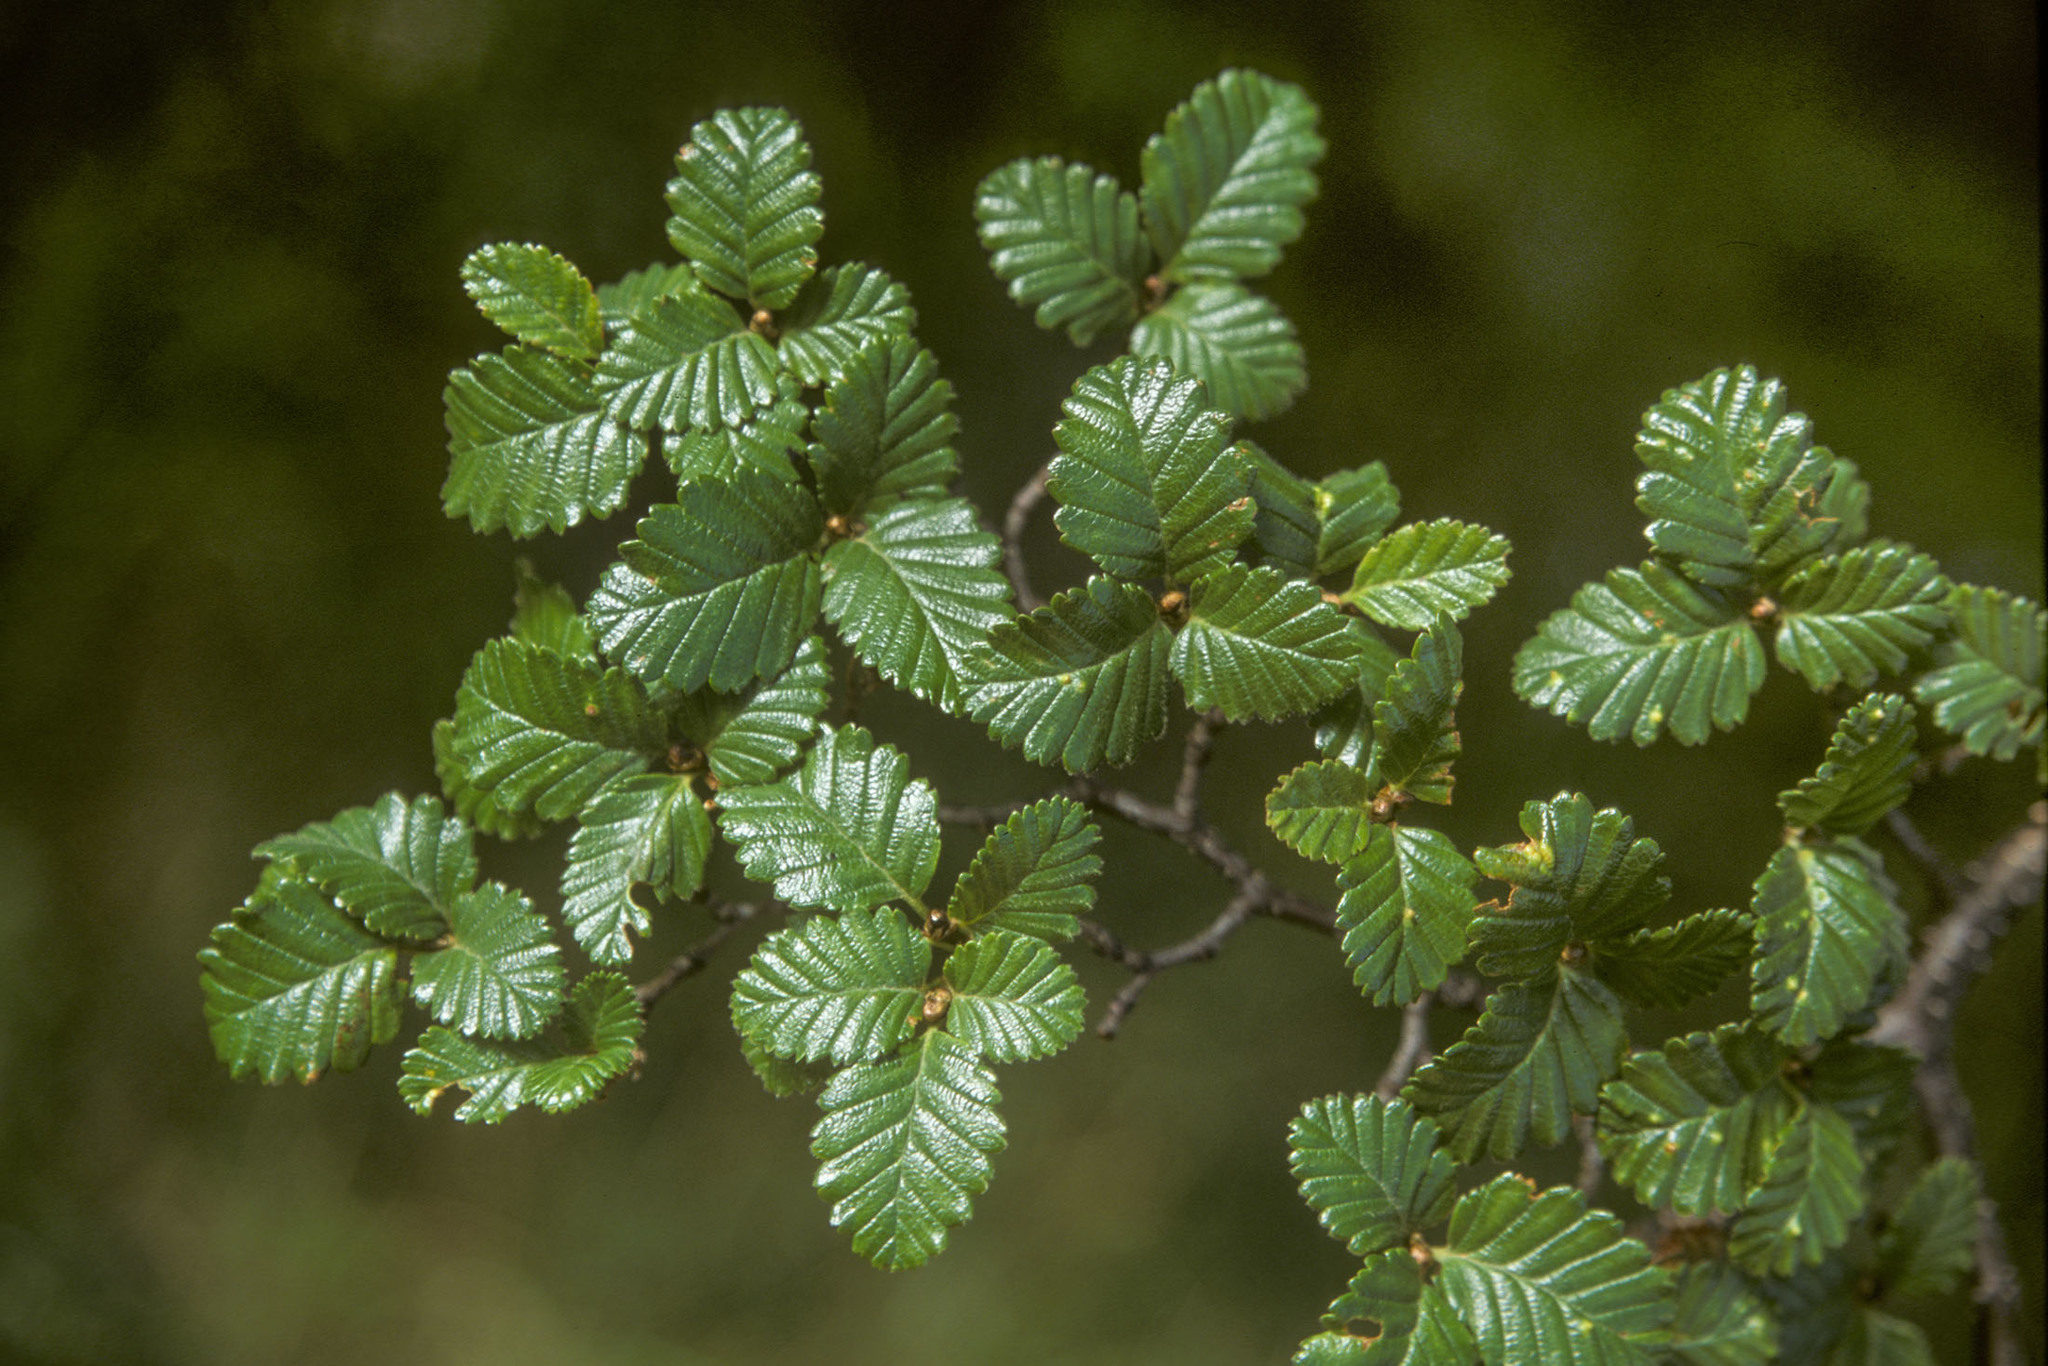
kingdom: Plantae
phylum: Tracheophyta
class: Magnoliopsida
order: Fagales
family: Nothofagaceae
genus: Nothofagus
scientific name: Nothofagus pumilio
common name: Lenga beech
